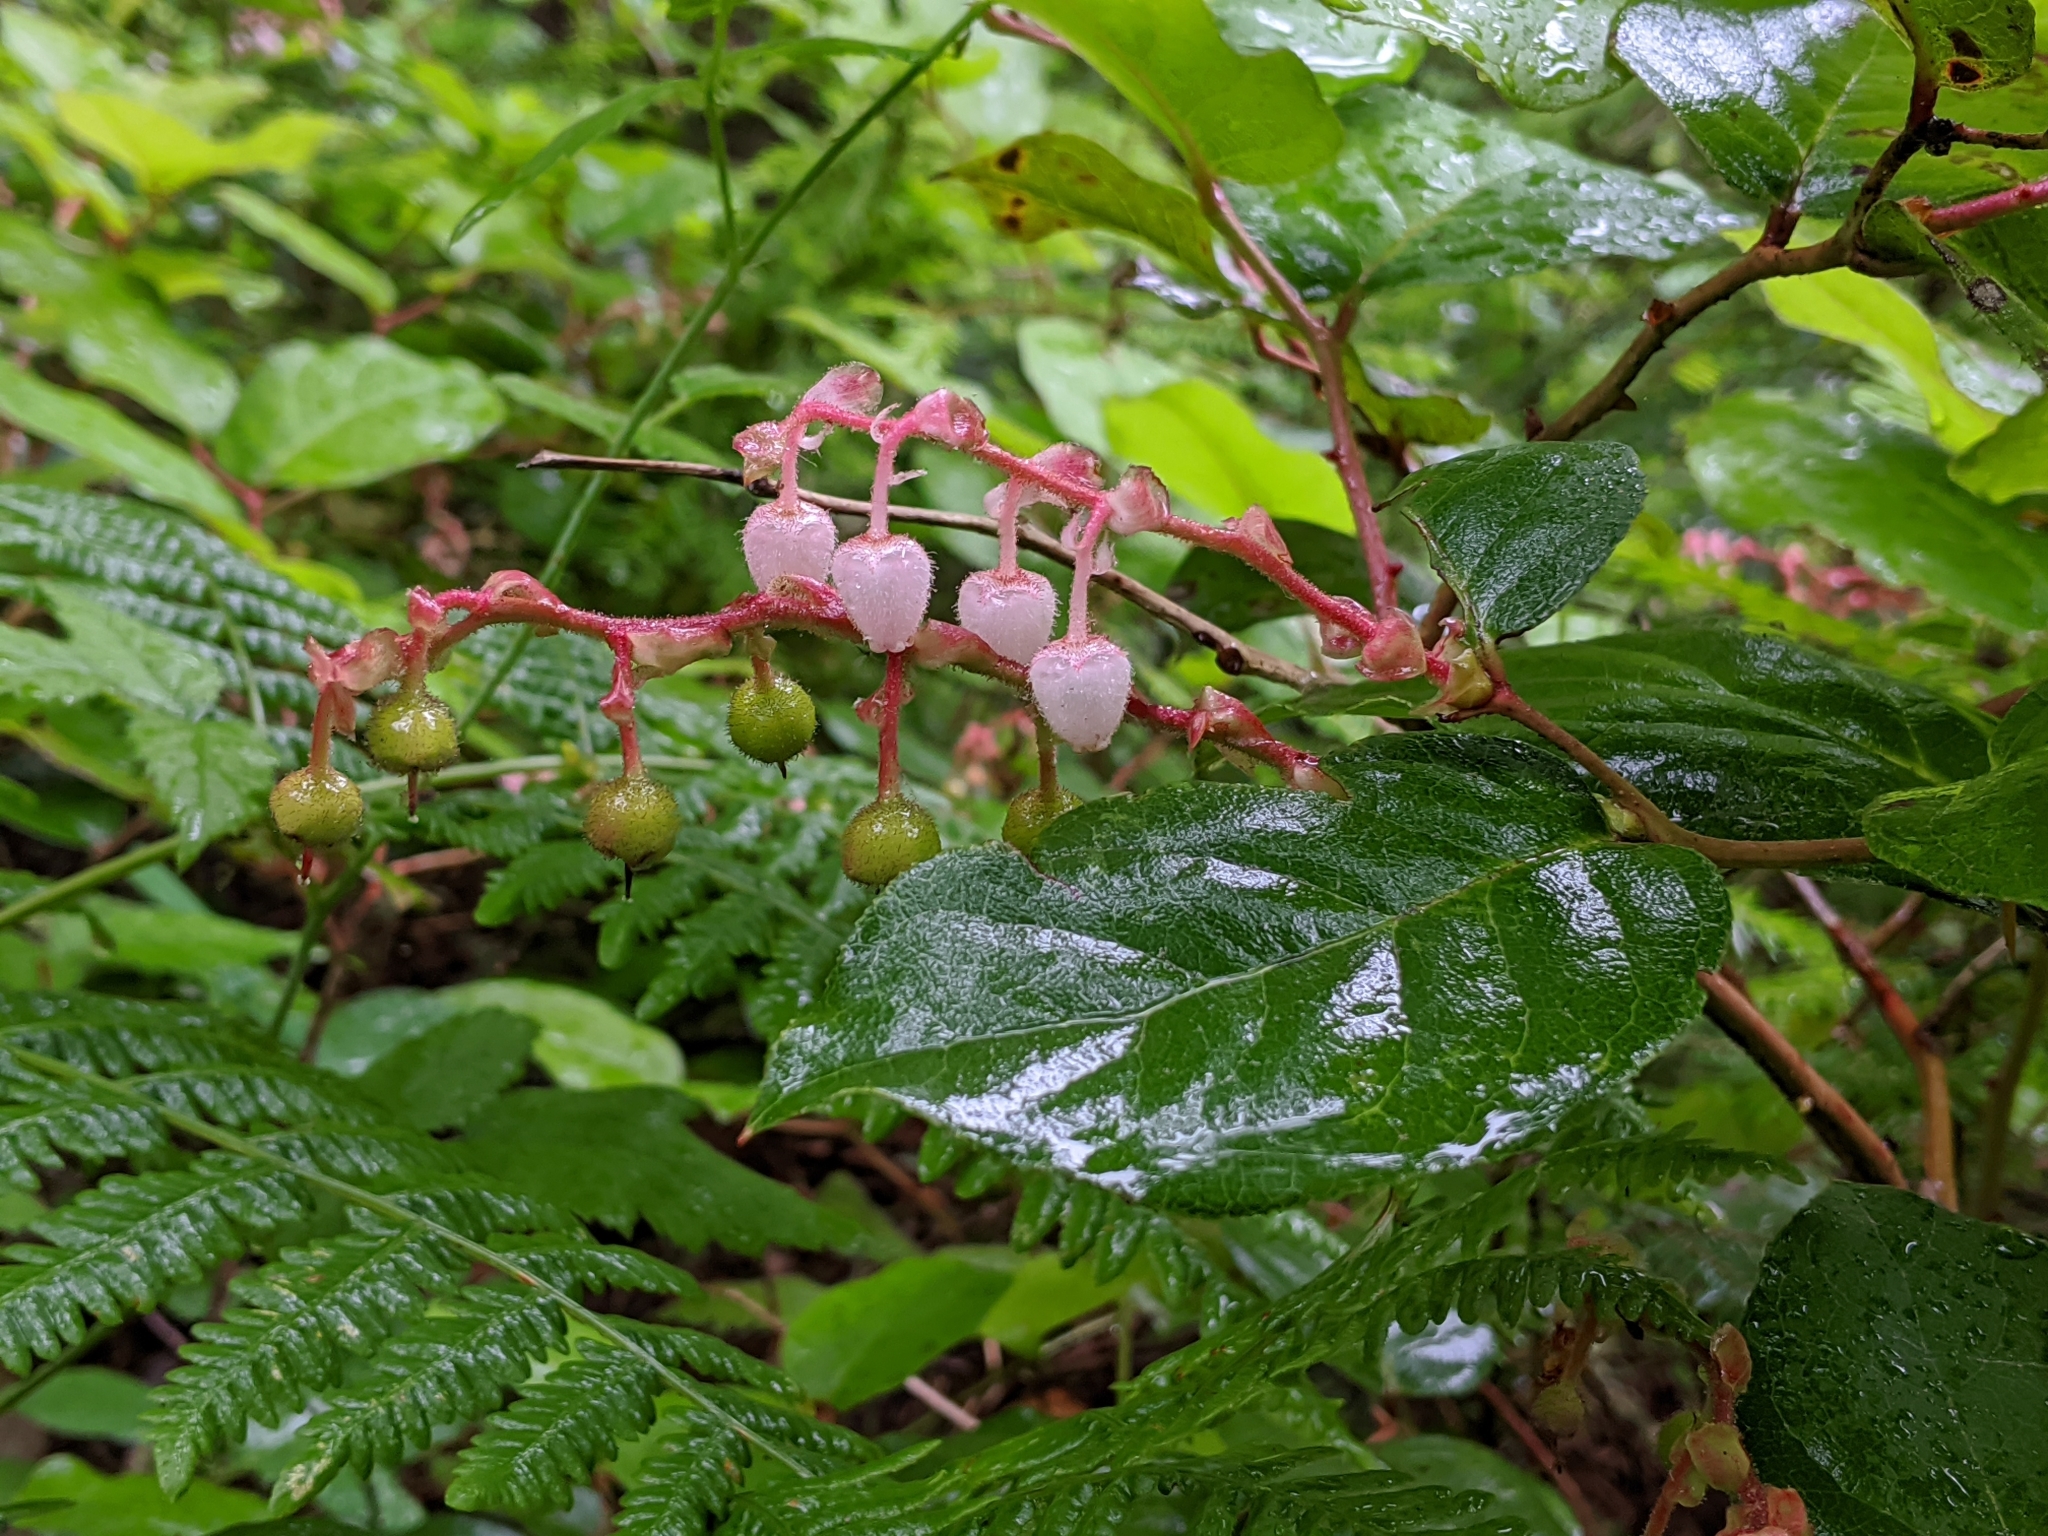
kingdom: Plantae
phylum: Tracheophyta
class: Magnoliopsida
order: Ericales
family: Ericaceae
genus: Gaultheria
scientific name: Gaultheria shallon
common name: Shallon
